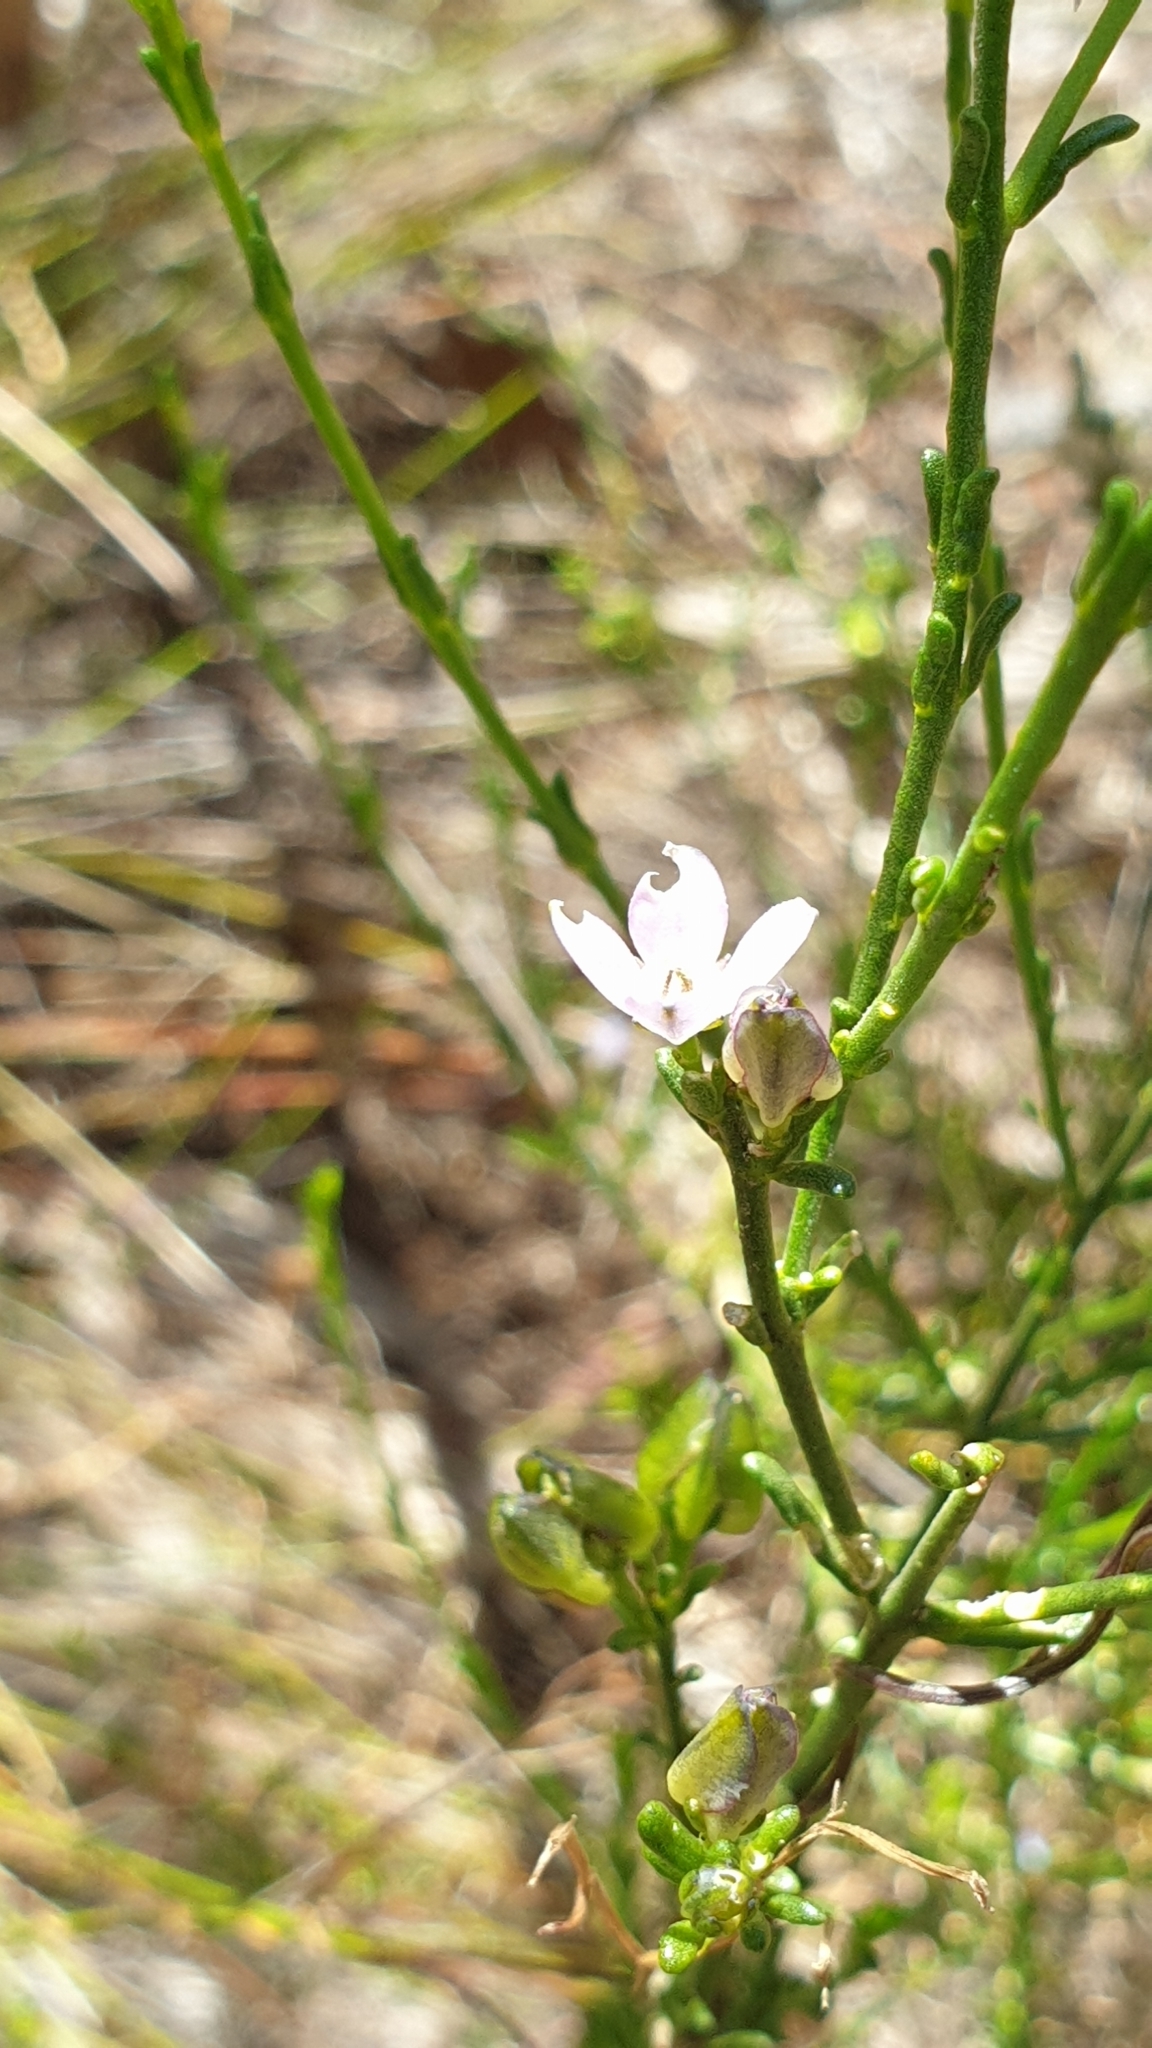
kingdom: Plantae
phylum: Tracheophyta
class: Magnoliopsida
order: Sapindales
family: Rutaceae
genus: Cyanothamnus
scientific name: Cyanothamnus coerulescens
